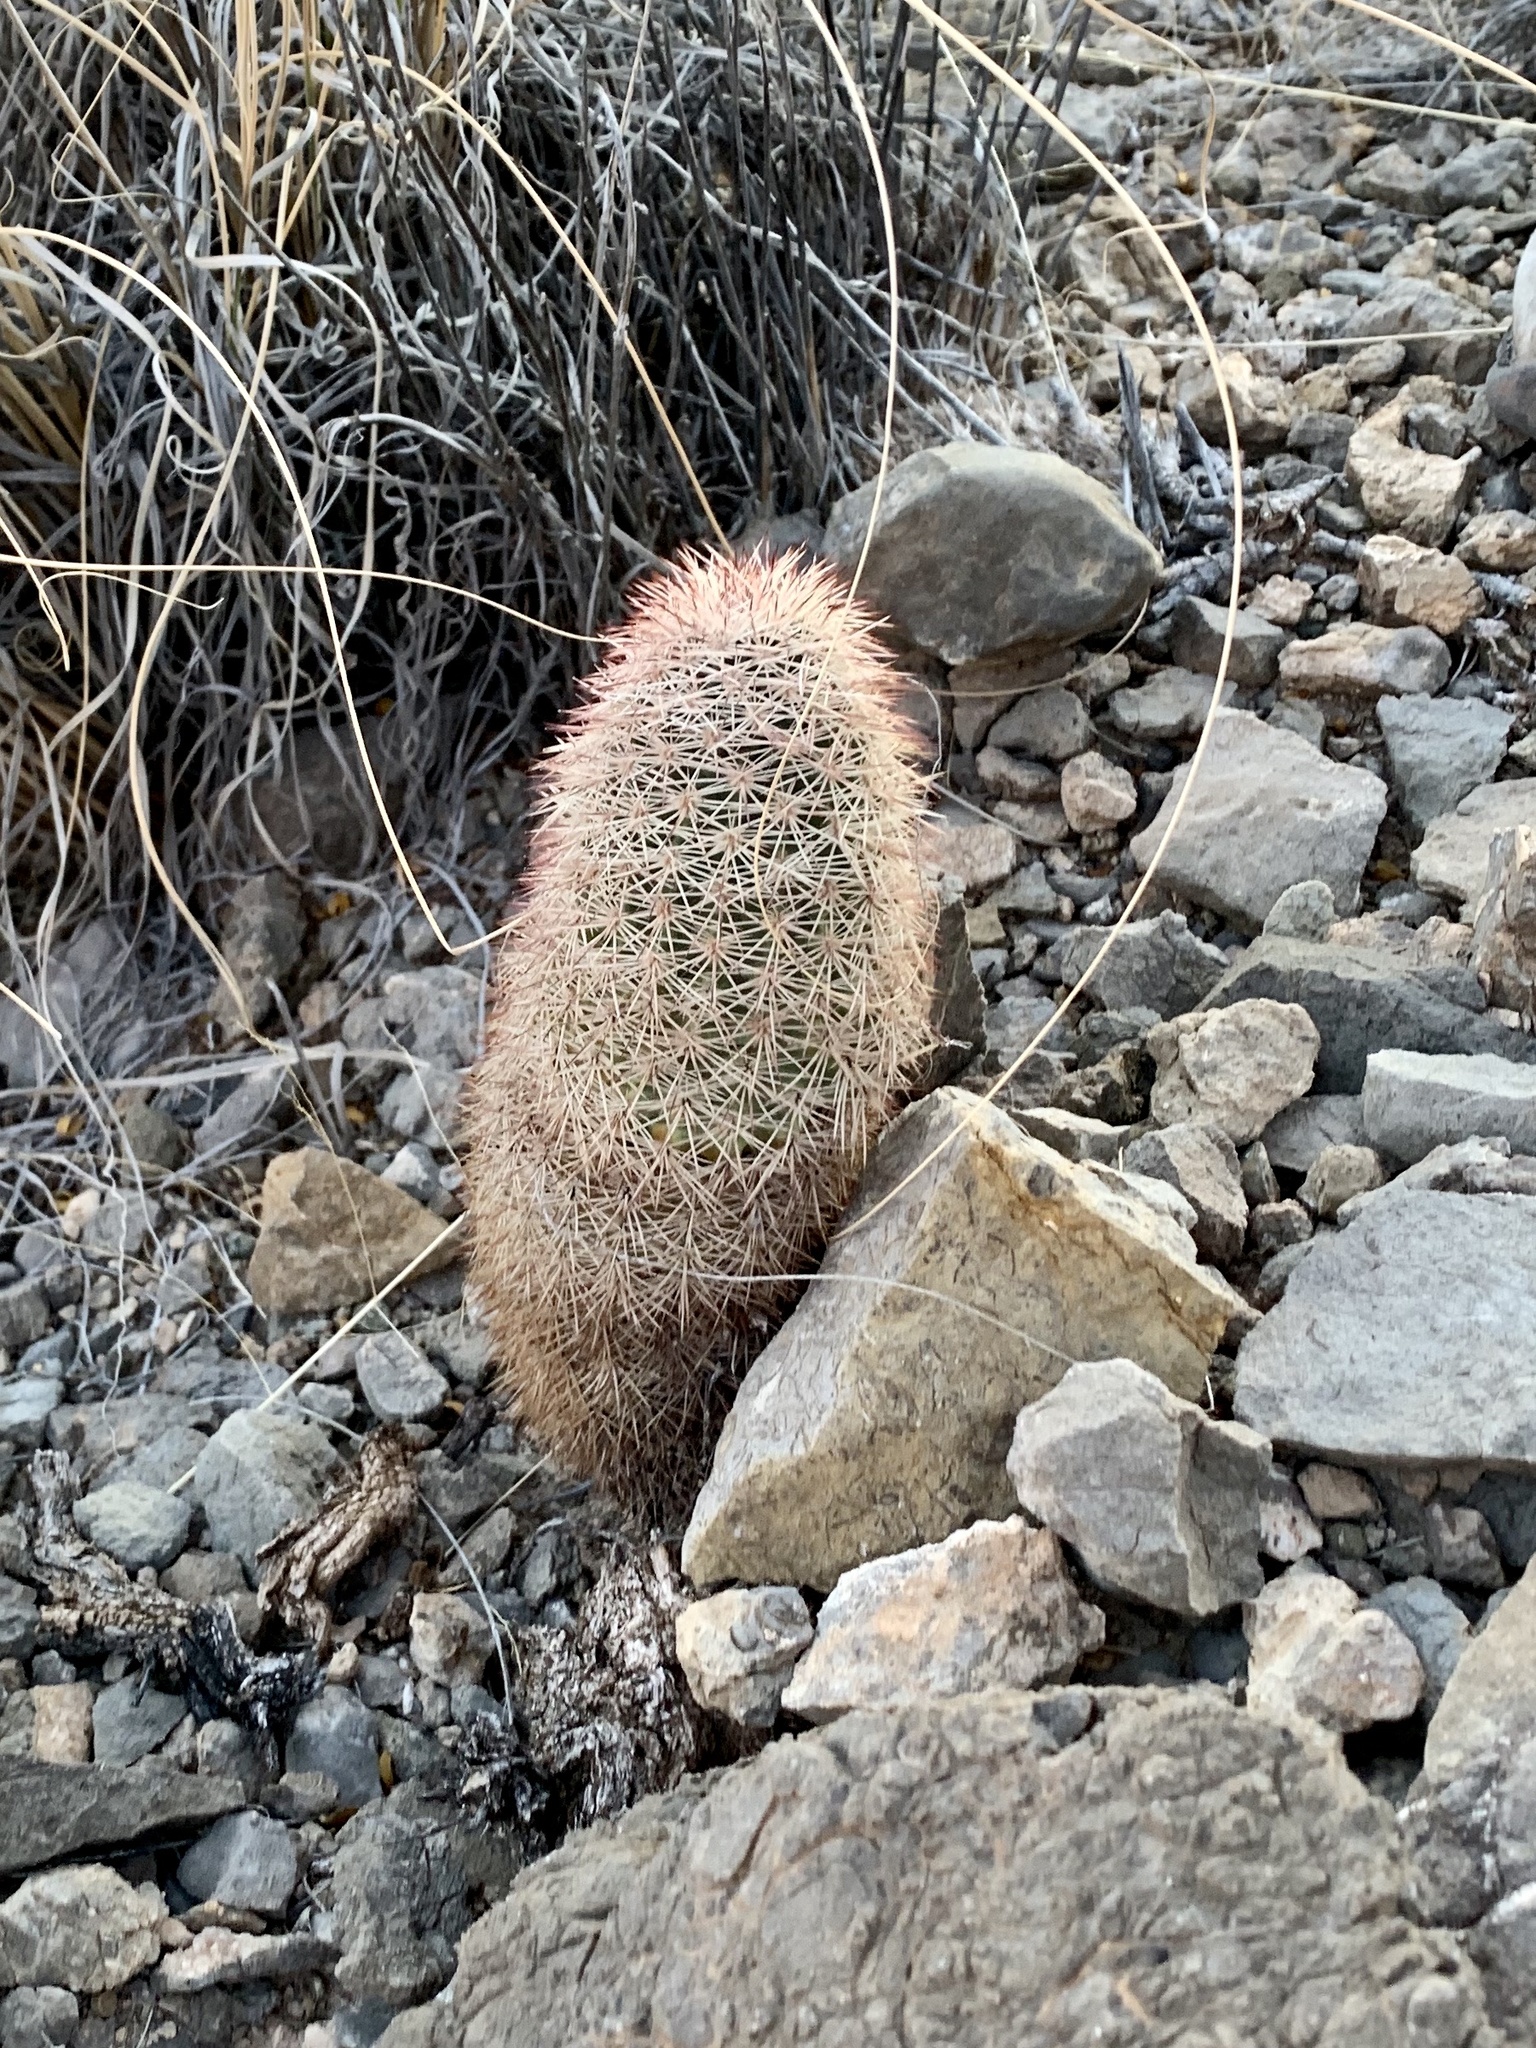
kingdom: Plantae
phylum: Tracheophyta
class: Magnoliopsida
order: Caryophyllales
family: Cactaceae
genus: Echinocereus
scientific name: Echinocereus dasyacanthus
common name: Spiny hedgehog cactus
